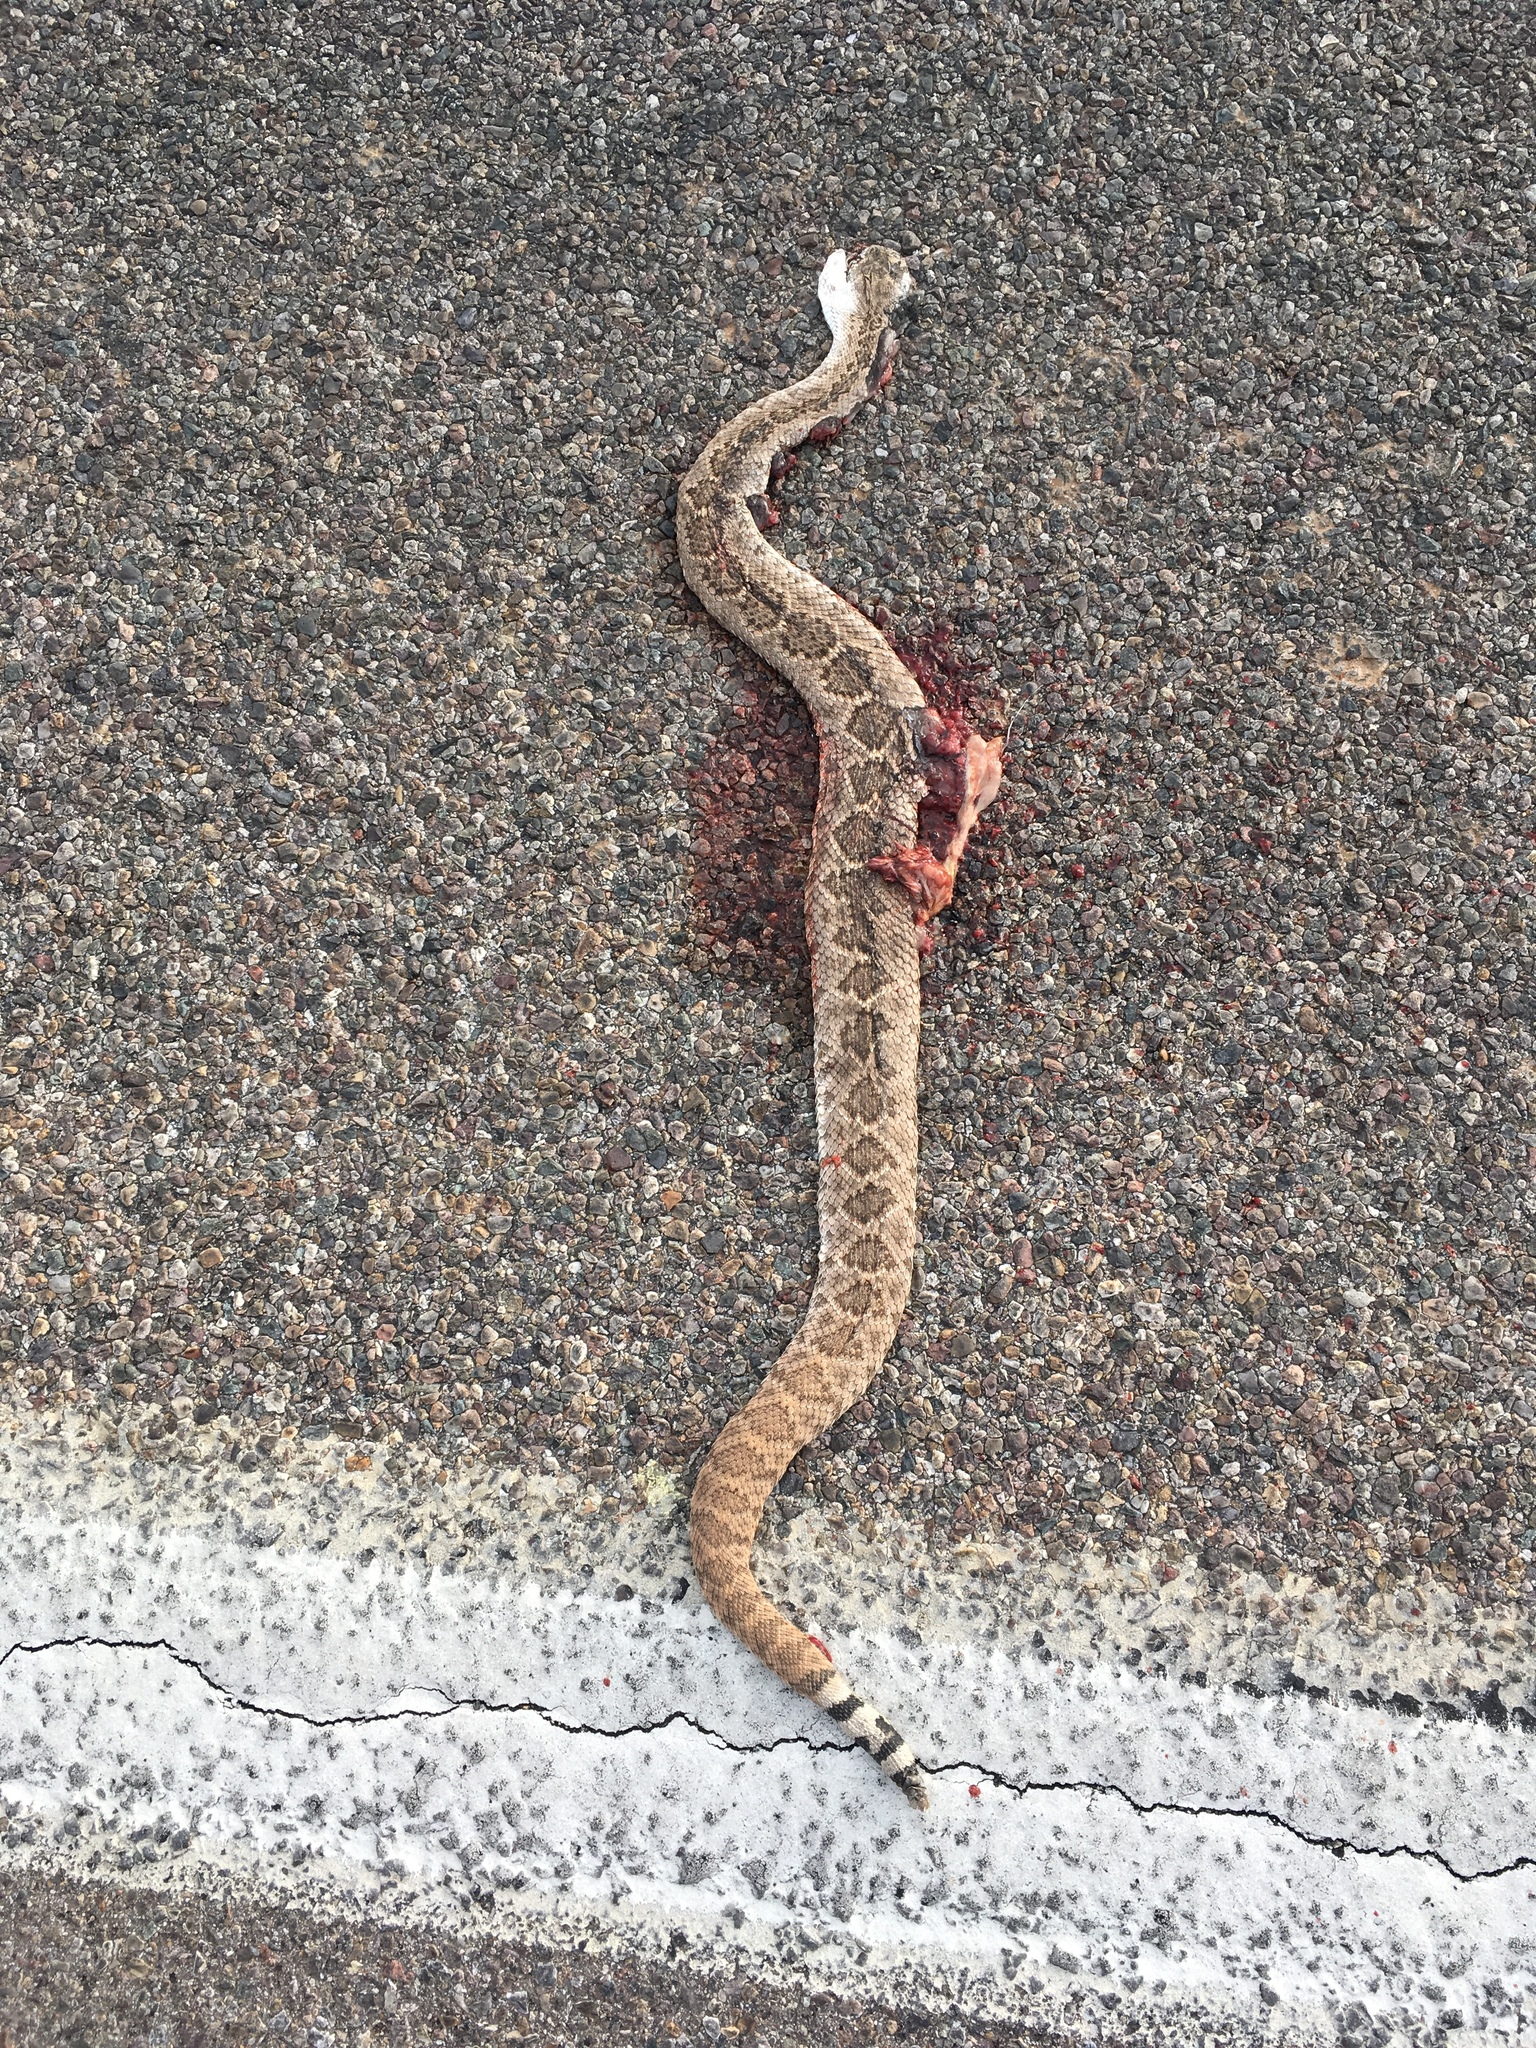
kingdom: Animalia
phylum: Chordata
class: Squamata
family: Viperidae
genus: Crotalus
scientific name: Crotalus atrox
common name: Western diamond-backed rattlesnake
